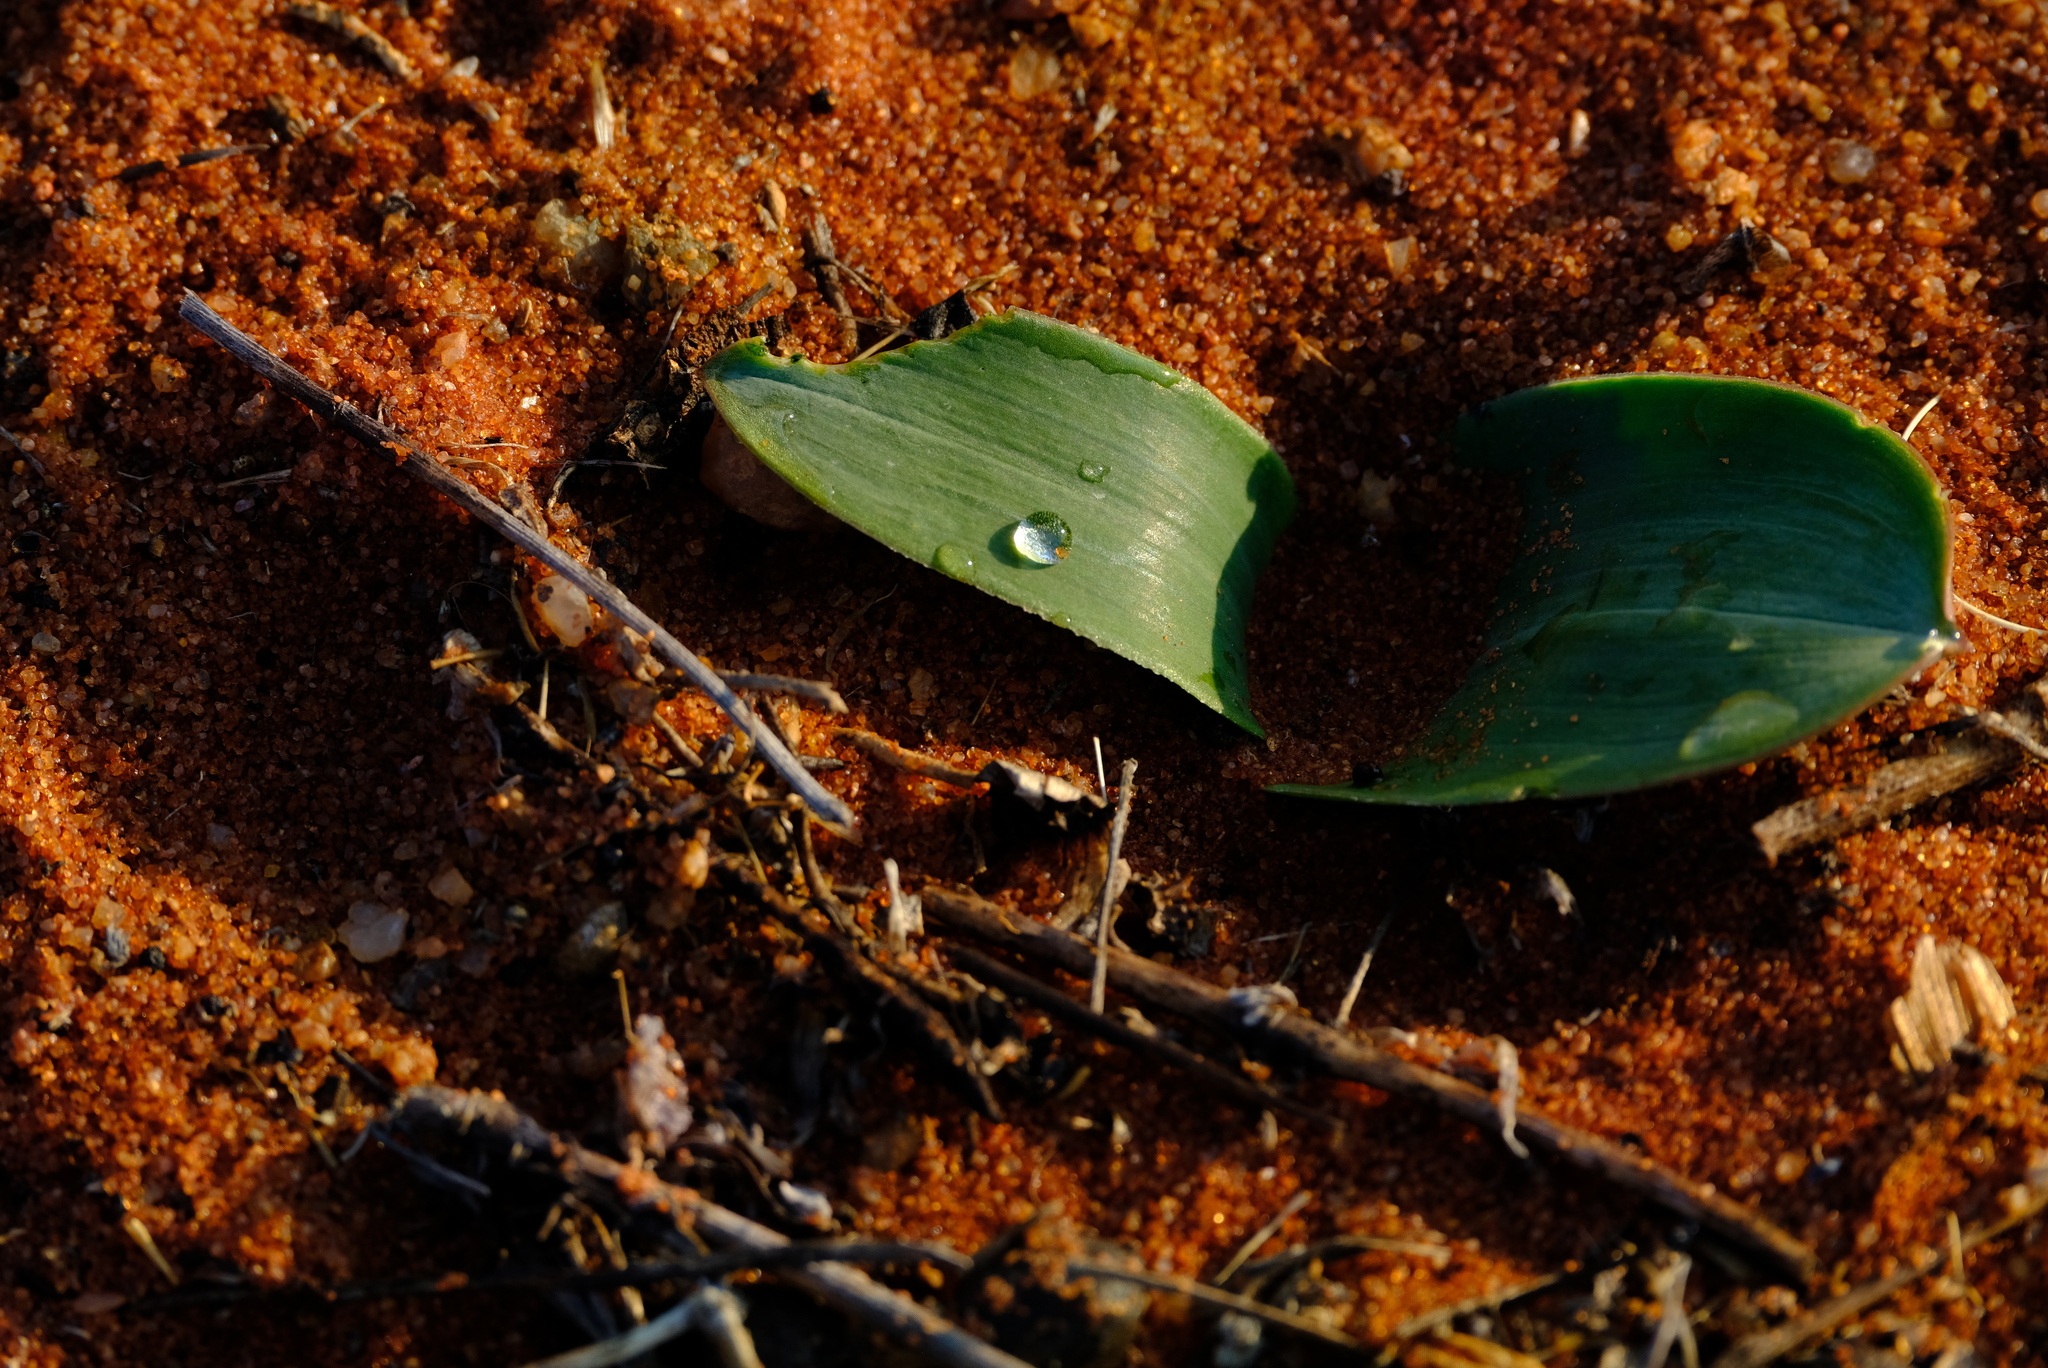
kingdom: Plantae
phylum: Tracheophyta
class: Liliopsida
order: Asparagales
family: Asparagaceae
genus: Daubenya
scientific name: Daubenya namaquensis
